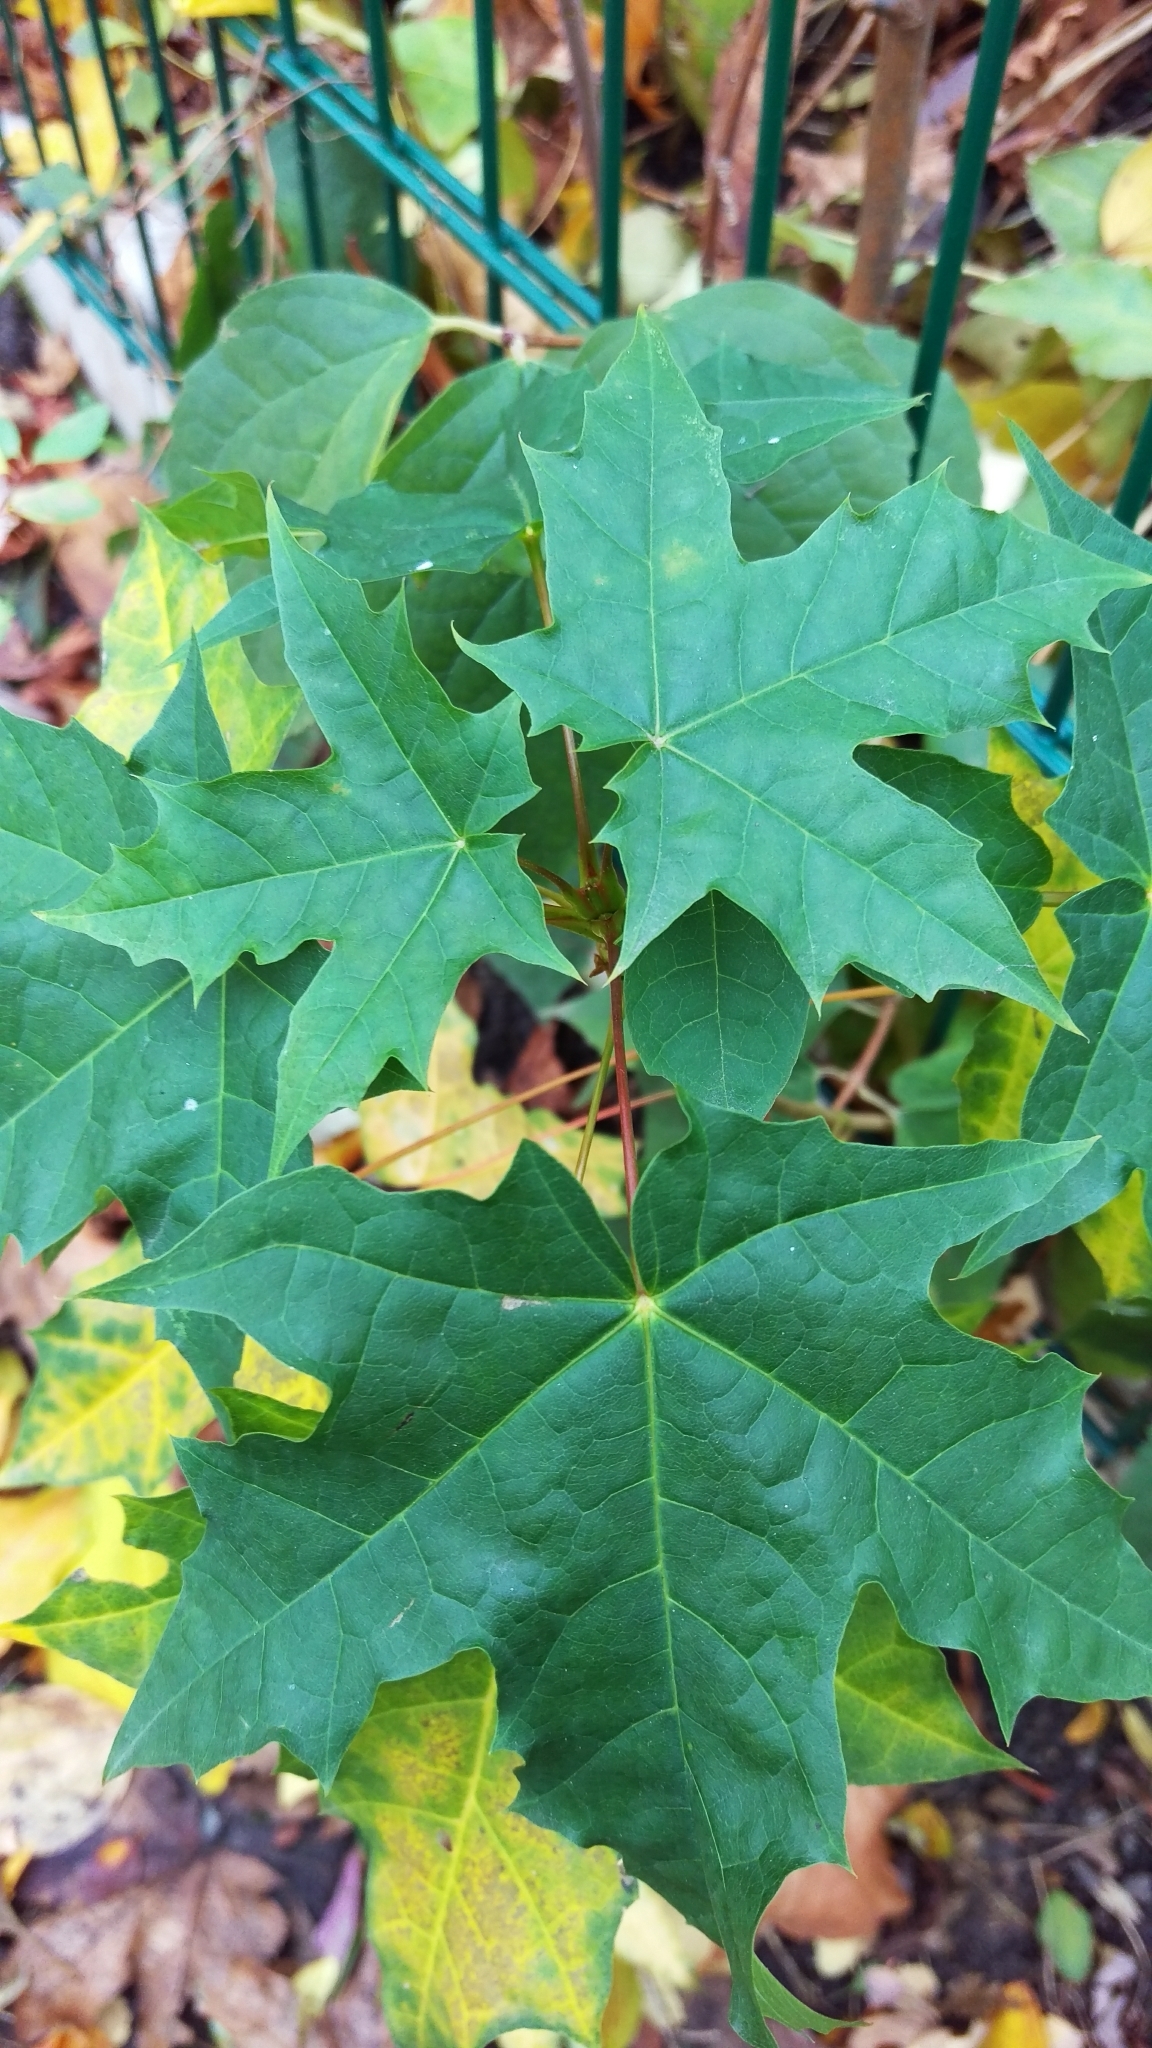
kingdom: Plantae
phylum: Tracheophyta
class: Magnoliopsida
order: Sapindales
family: Sapindaceae
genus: Acer
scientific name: Acer platanoides
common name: Norway maple
